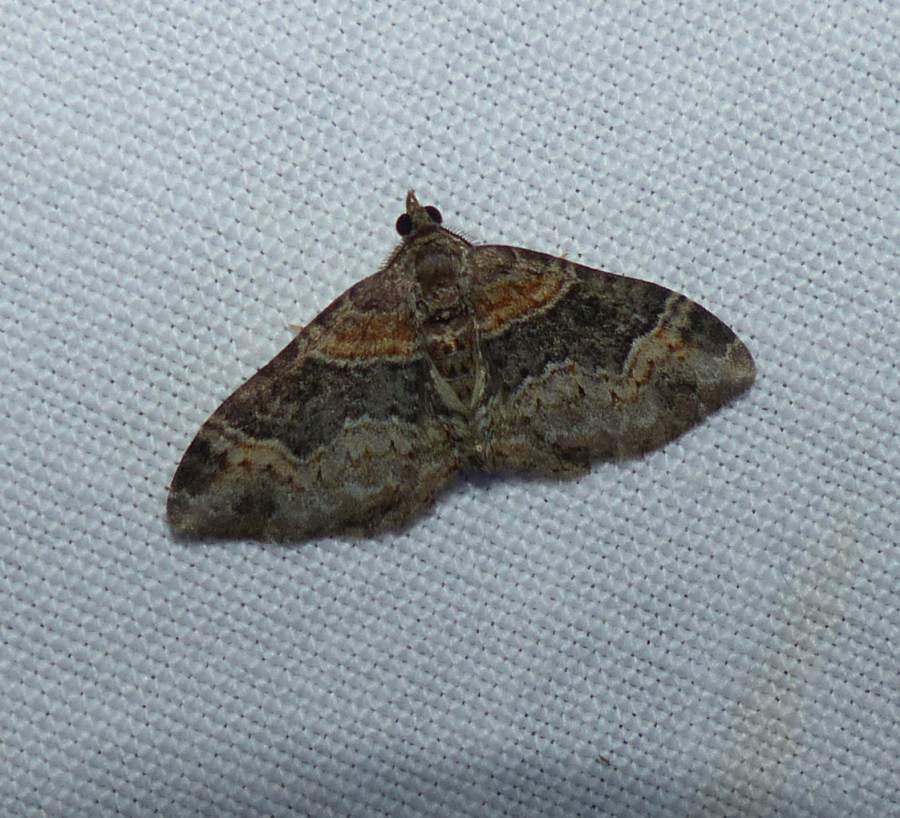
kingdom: Animalia
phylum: Arthropoda
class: Insecta
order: Lepidoptera
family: Geometridae
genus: Xanthorhoe
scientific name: Xanthorhoe ferrugata
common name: Dark-barred twin-spot carpet
